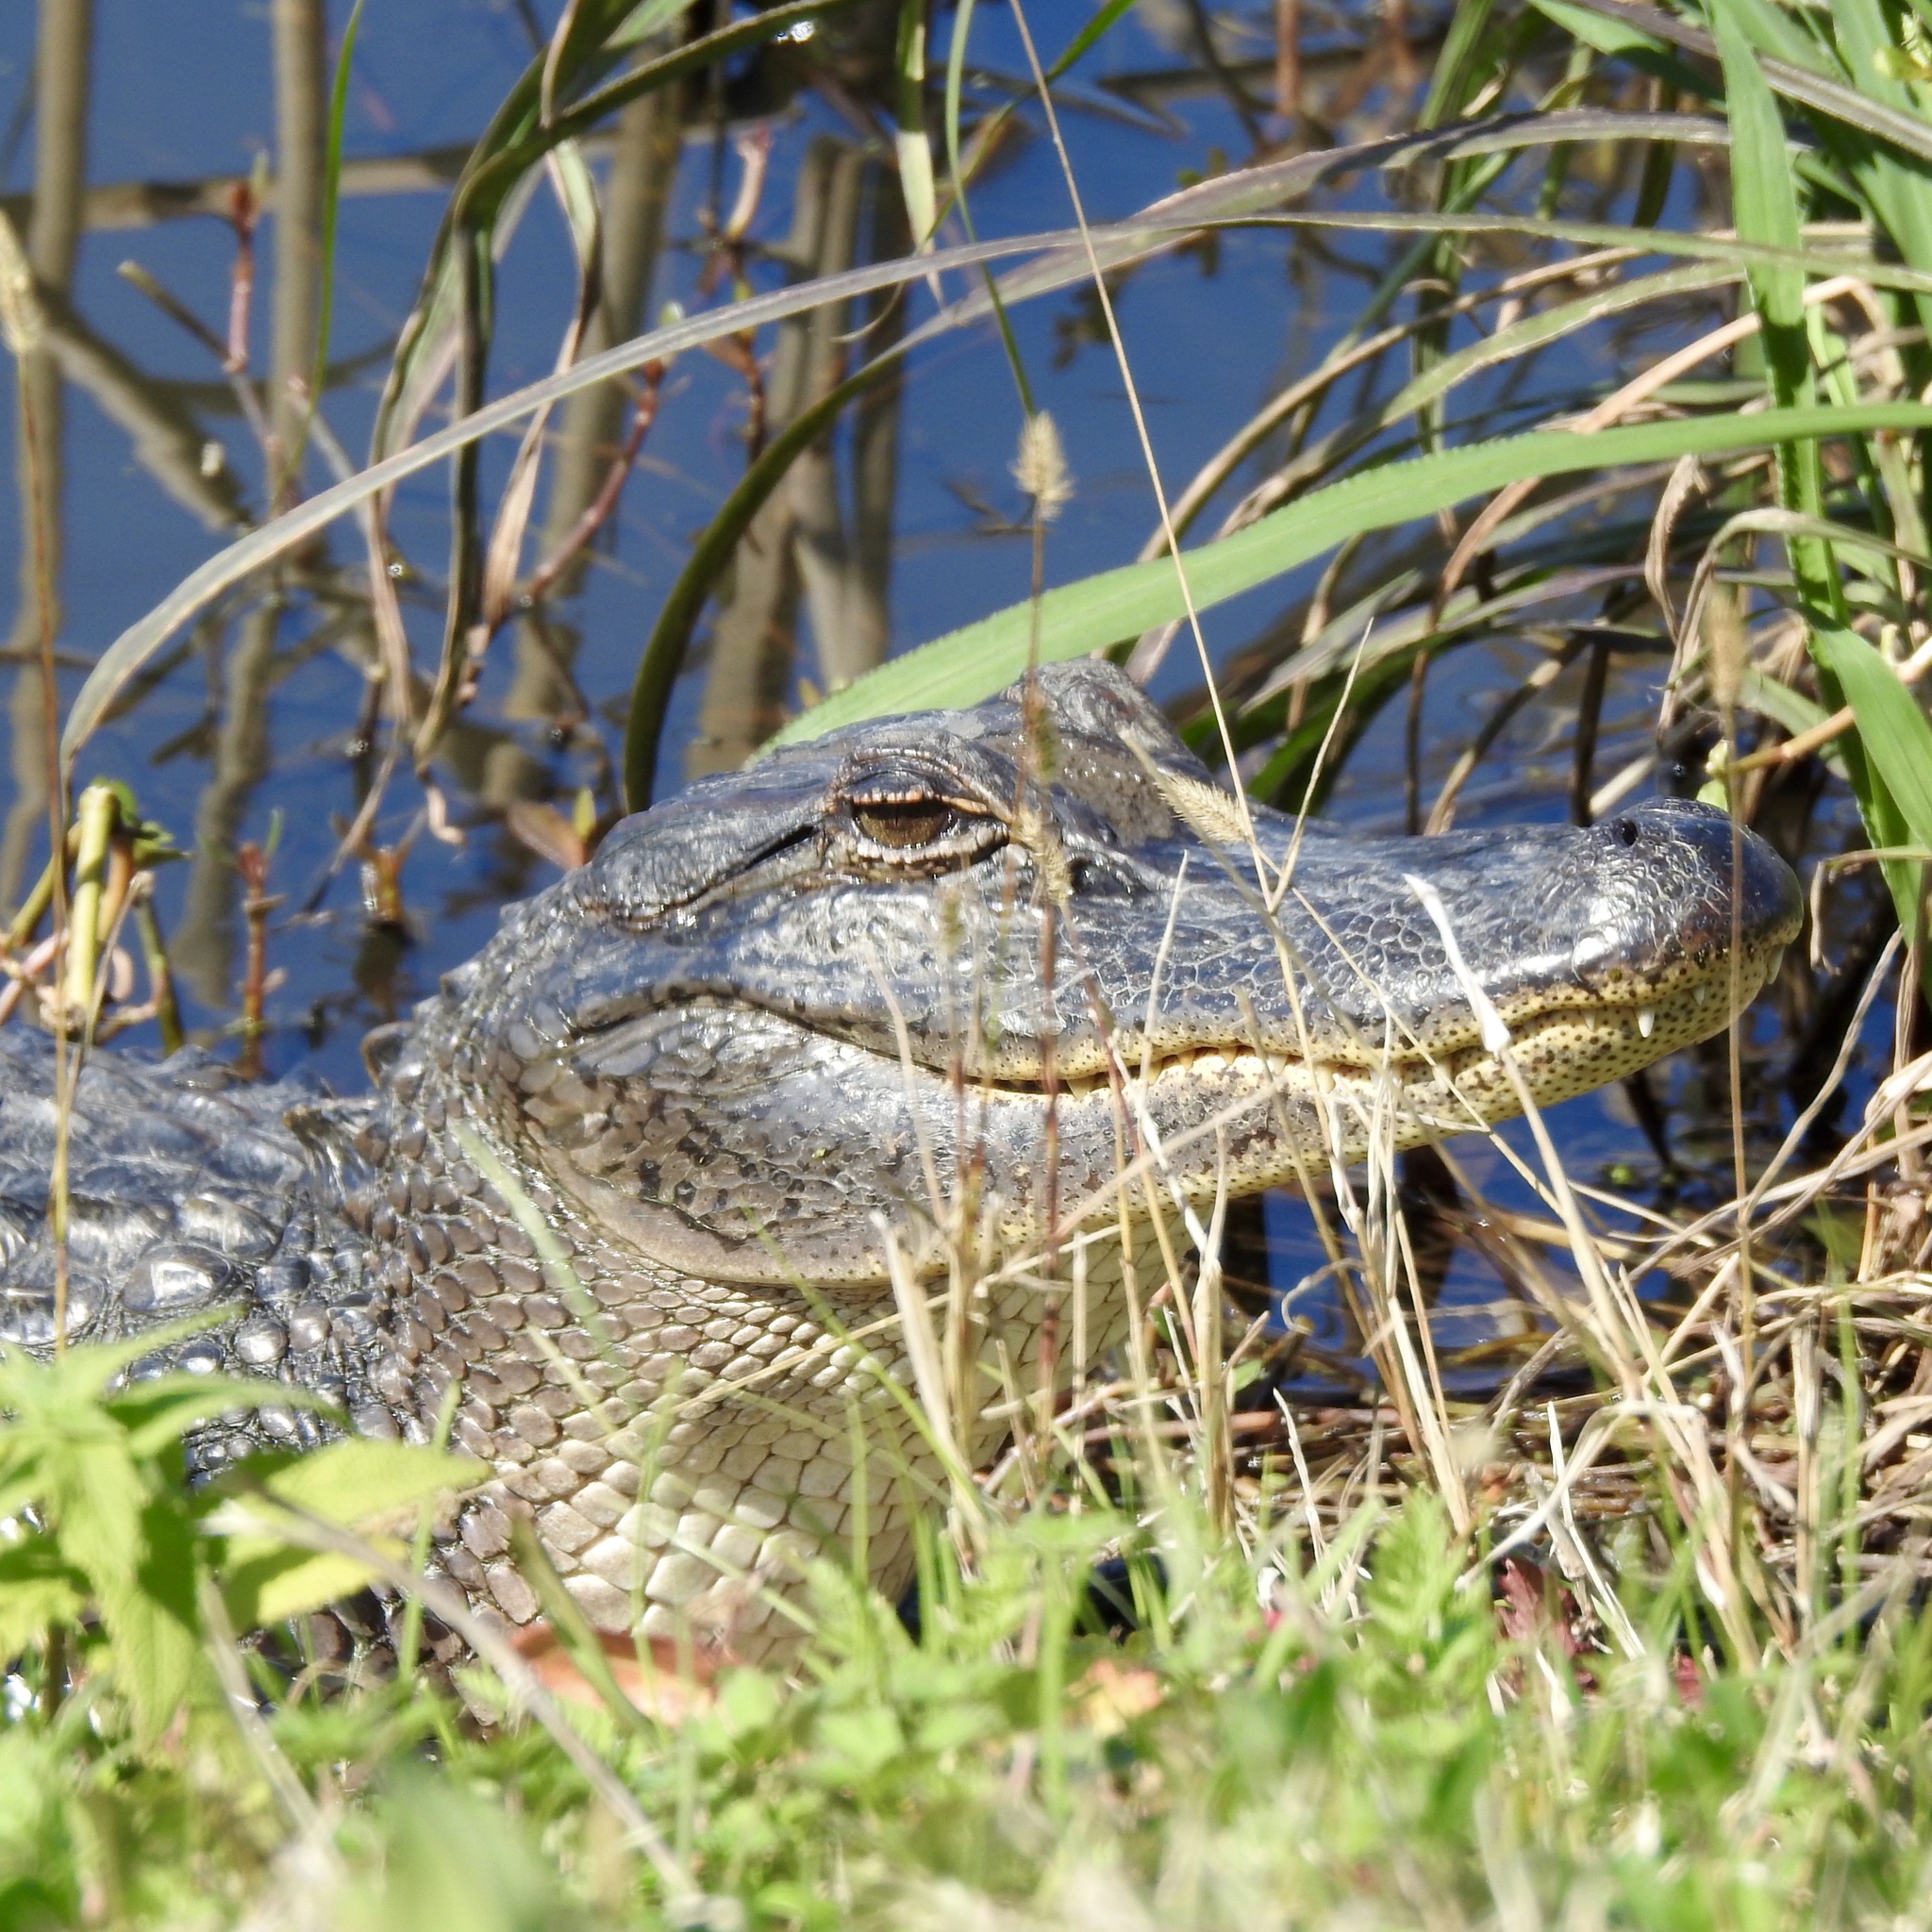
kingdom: Animalia
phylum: Chordata
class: Crocodylia
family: Alligatoridae
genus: Alligator
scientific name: Alligator mississippiensis
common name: American alligator
